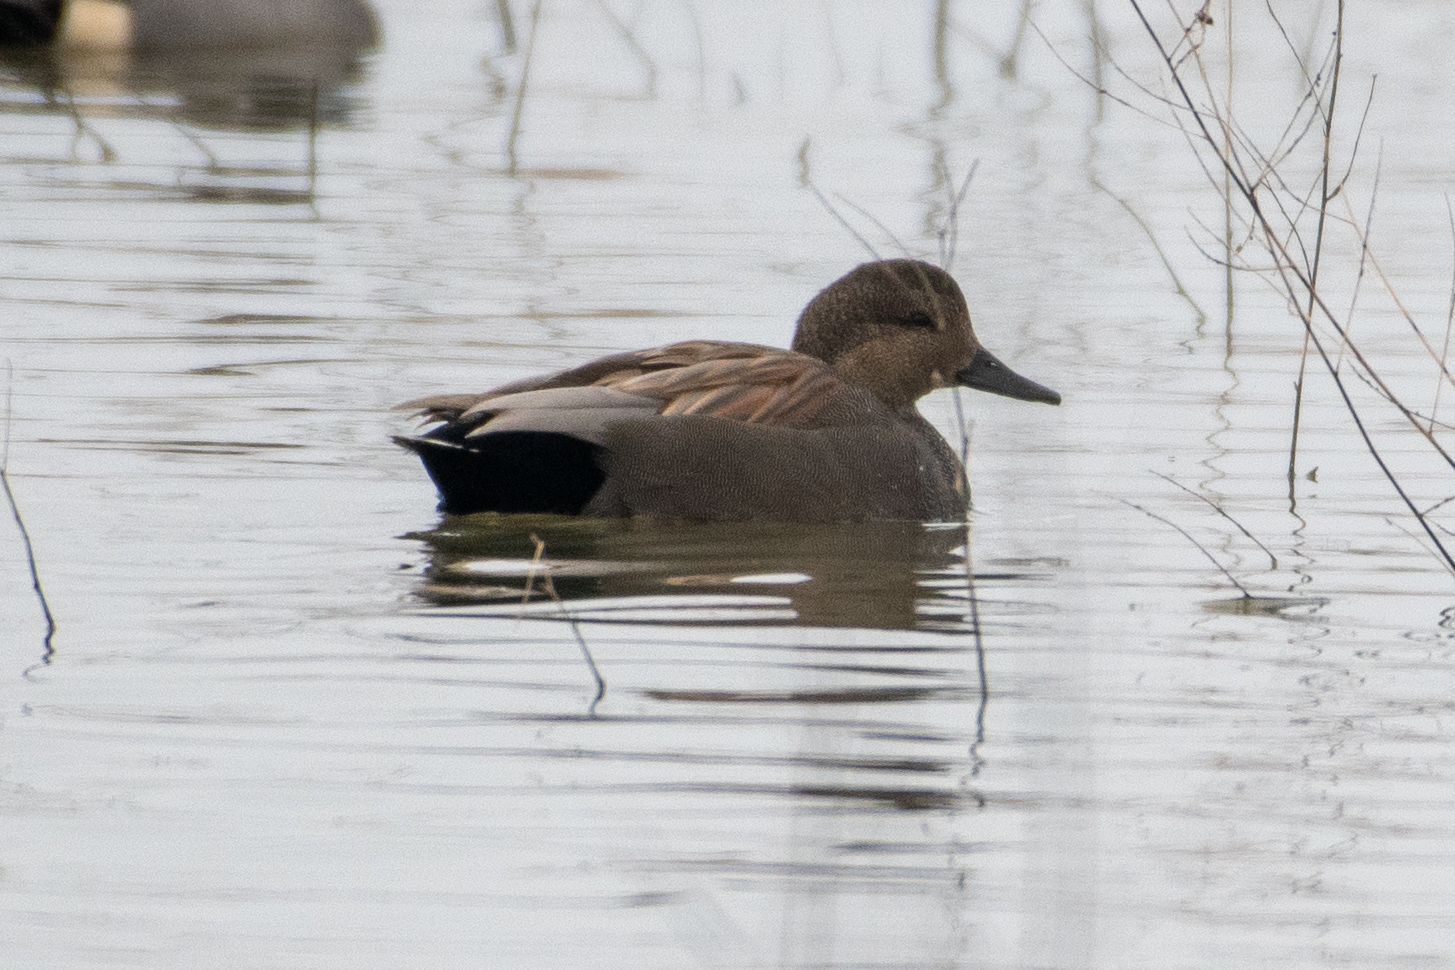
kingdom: Animalia
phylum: Chordata
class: Aves
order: Anseriformes
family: Anatidae
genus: Mareca
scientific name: Mareca strepera
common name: Gadwall
